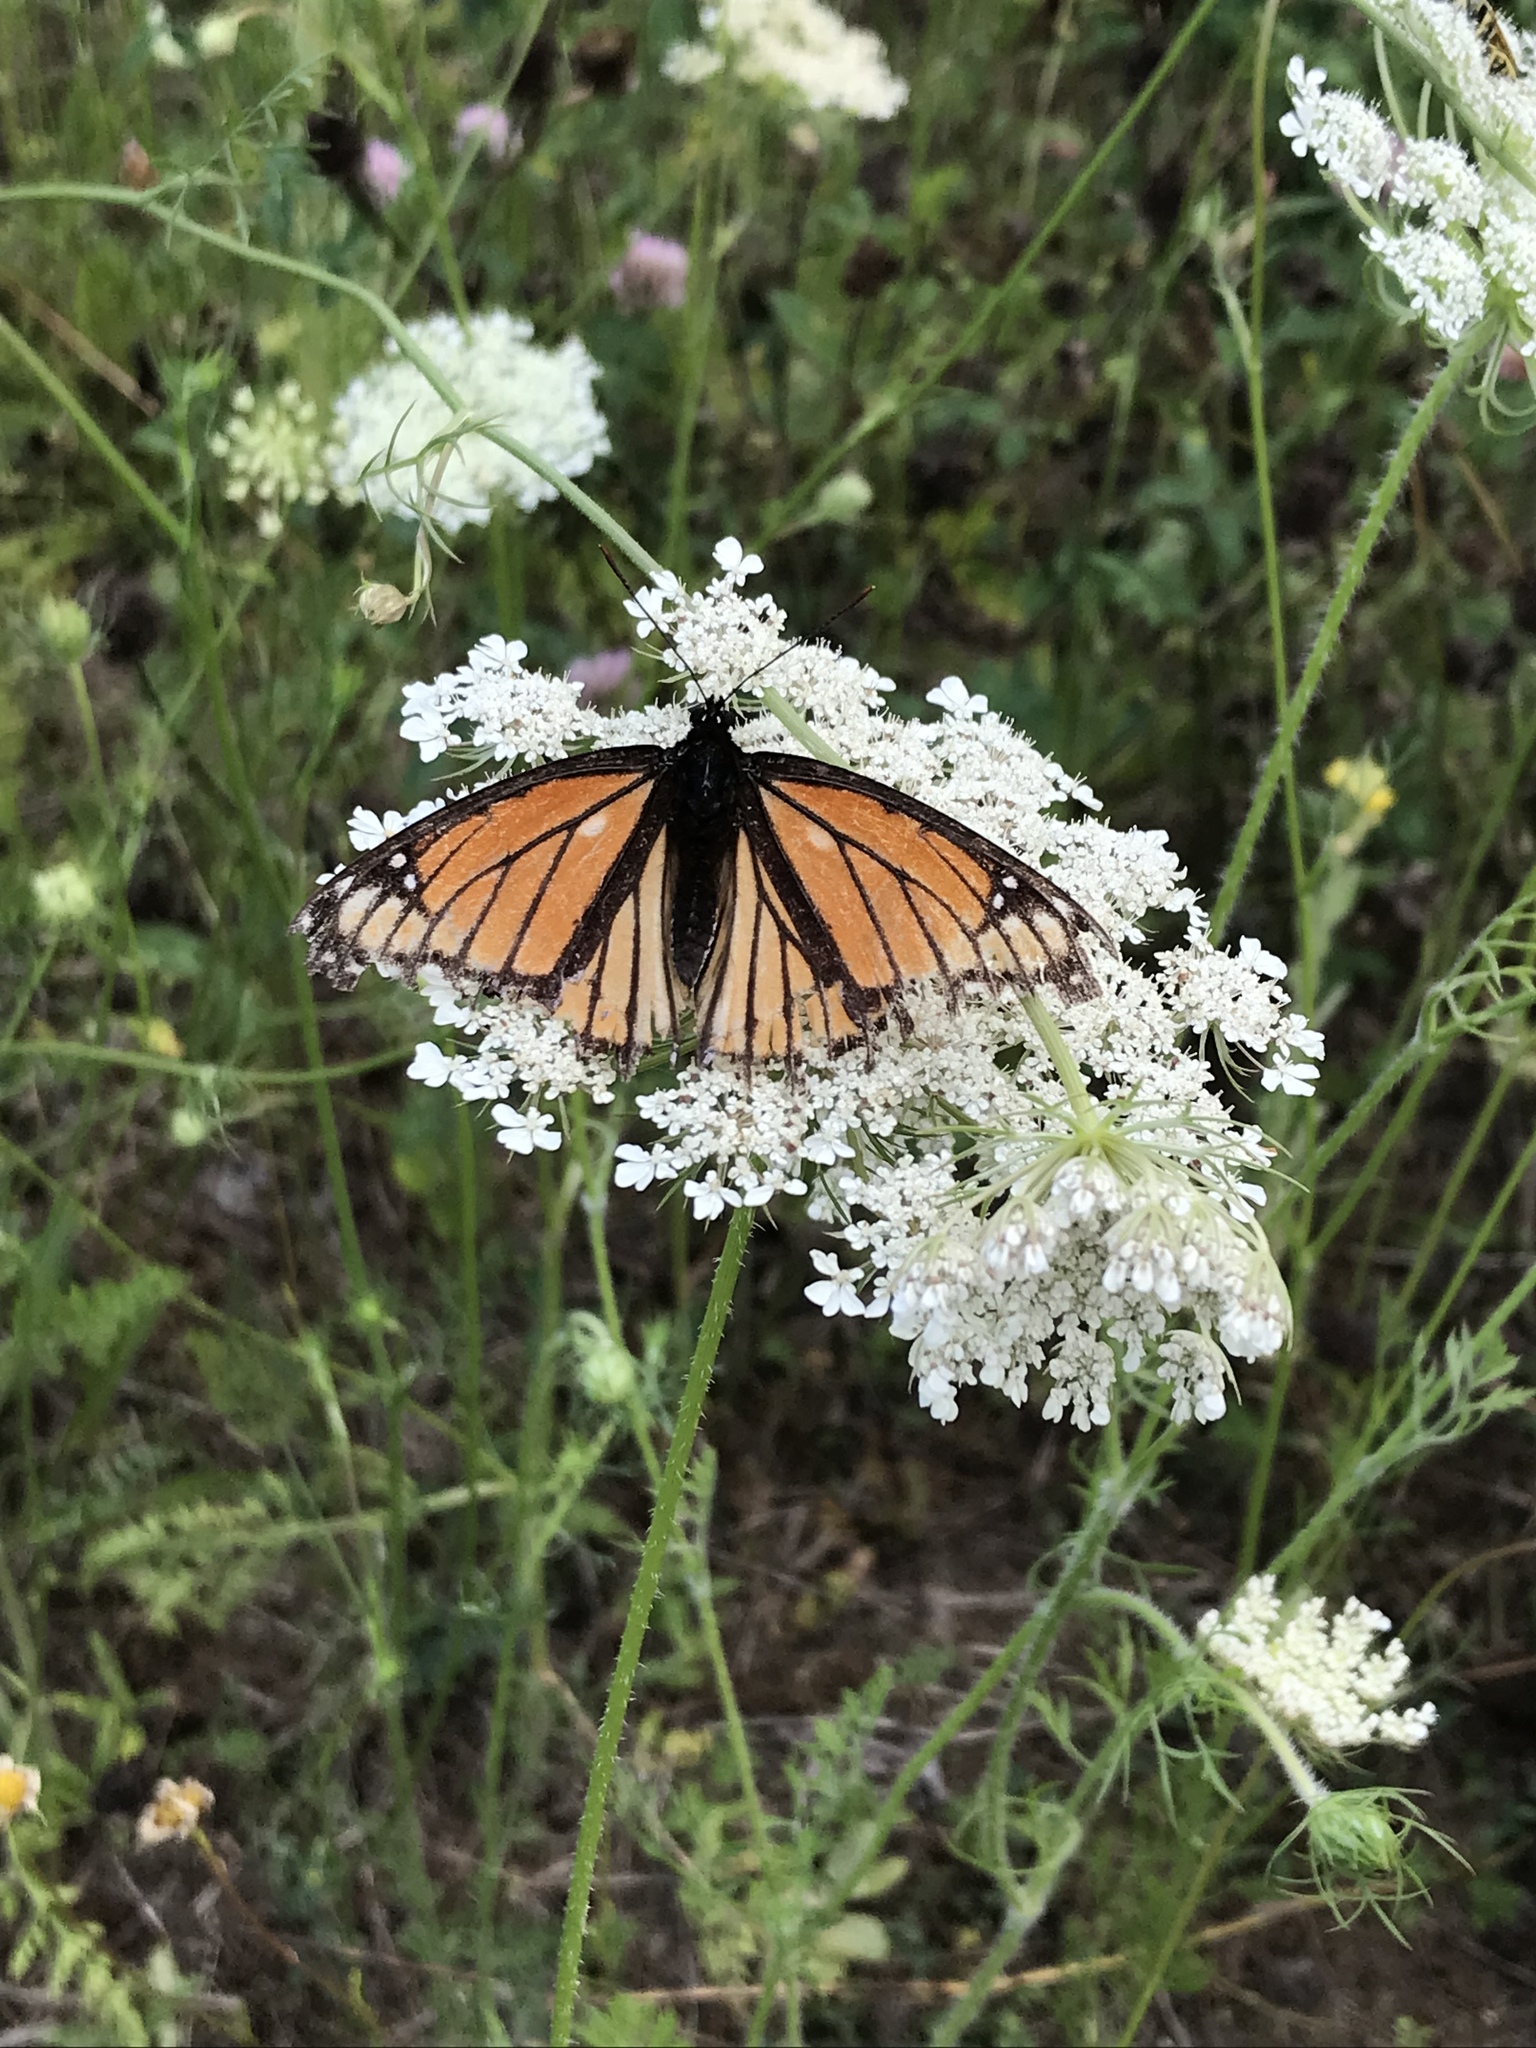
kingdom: Animalia
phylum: Arthropoda
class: Insecta
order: Lepidoptera
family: Nymphalidae
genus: Limenitis
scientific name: Limenitis archippus
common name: Viceroy
